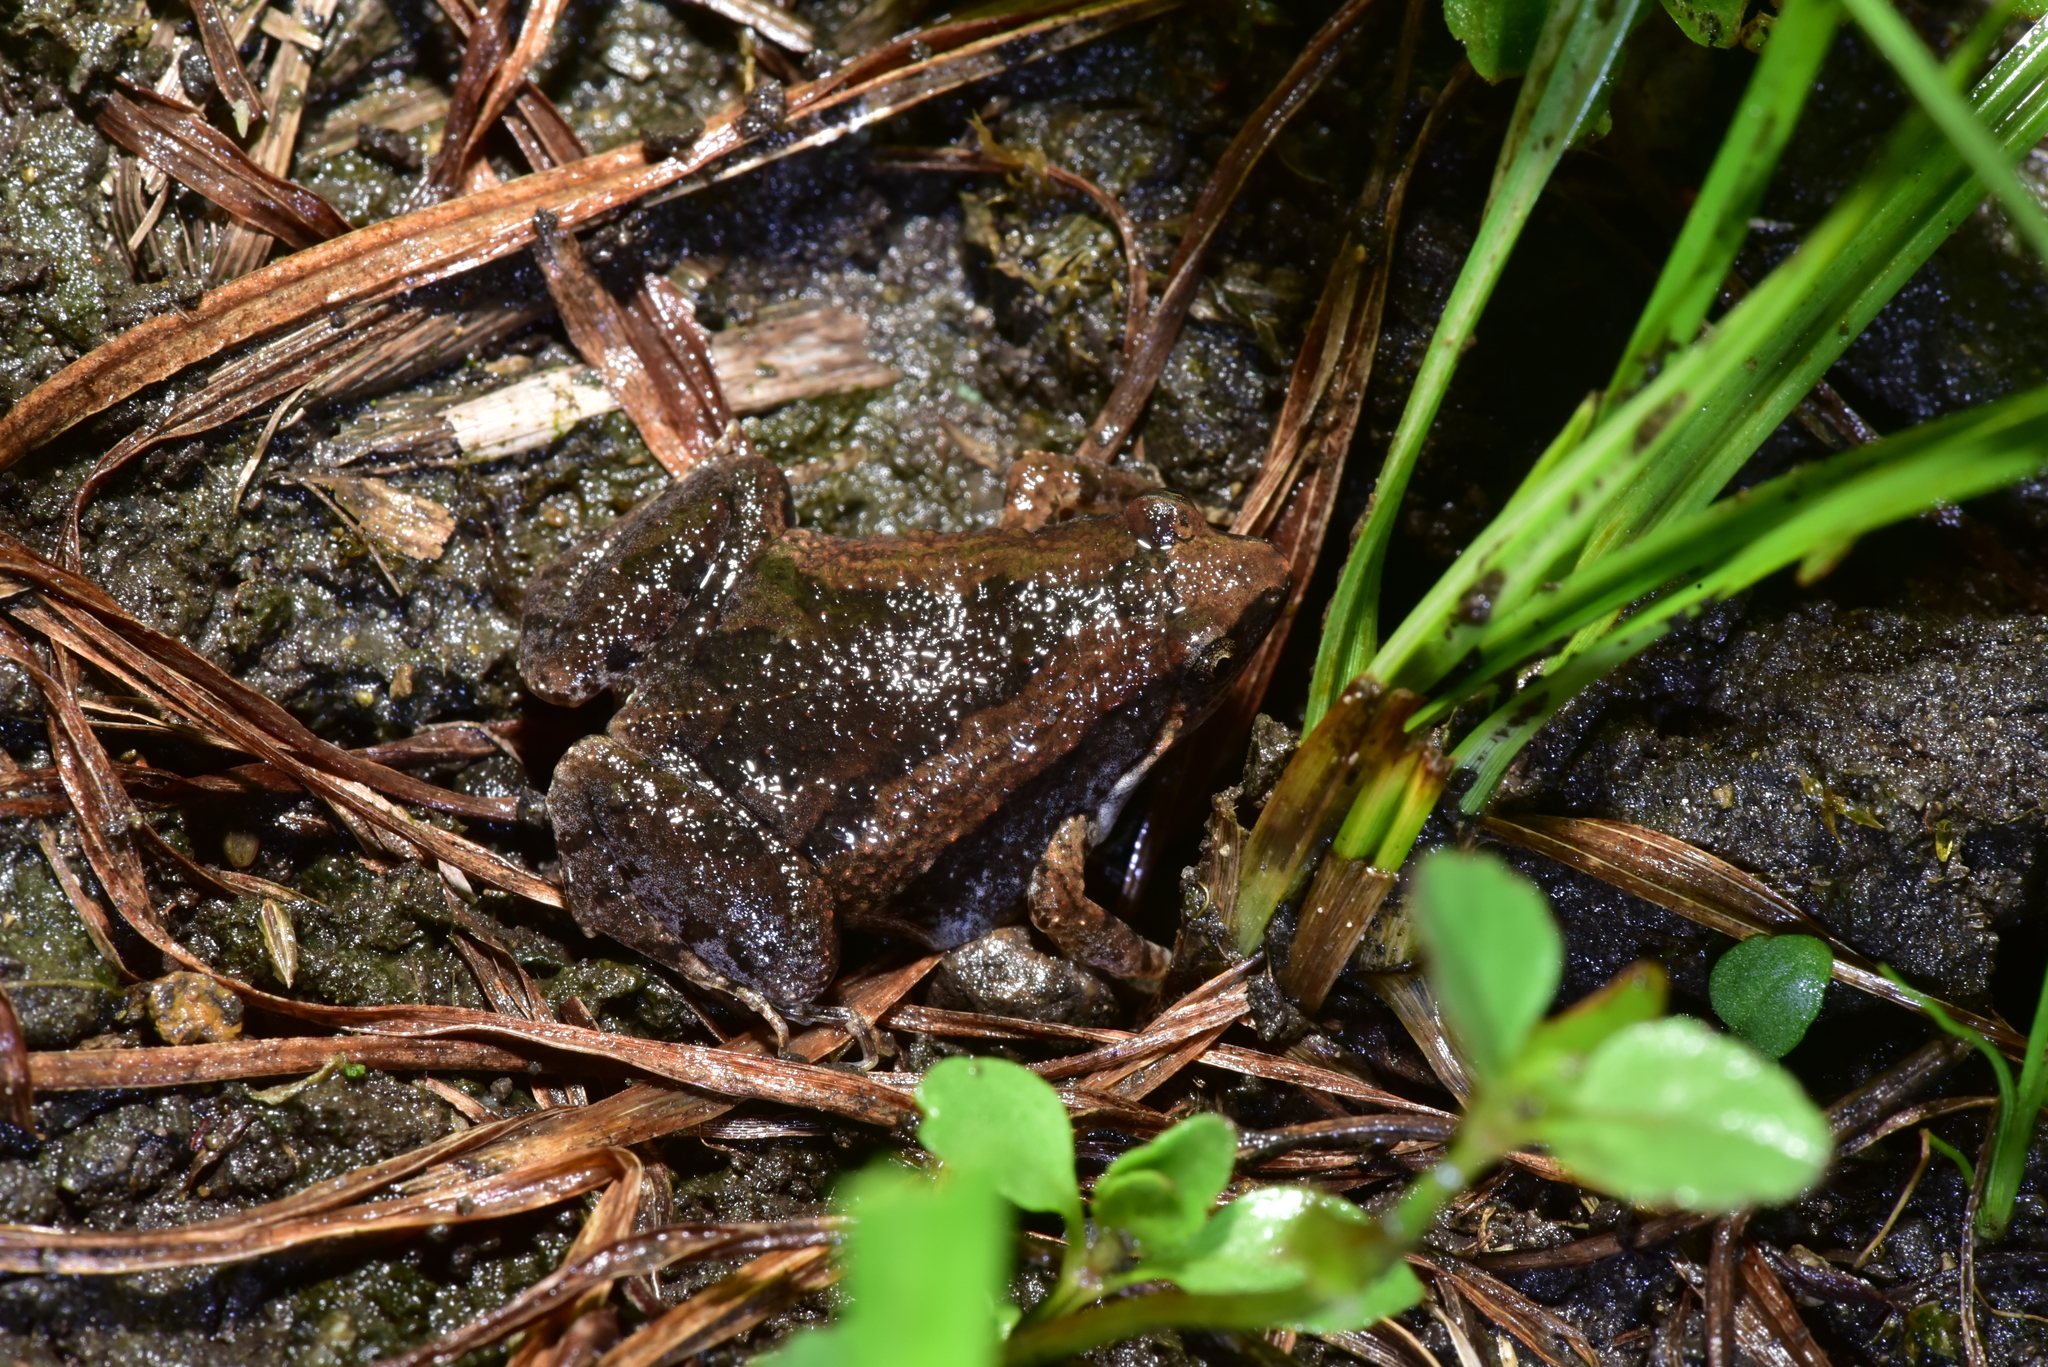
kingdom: Animalia
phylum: Chordata
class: Amphibia
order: Anura
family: Microhylidae
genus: Microhyla
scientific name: Microhyla fissipes
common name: Ornate narrow-mouthed frog
